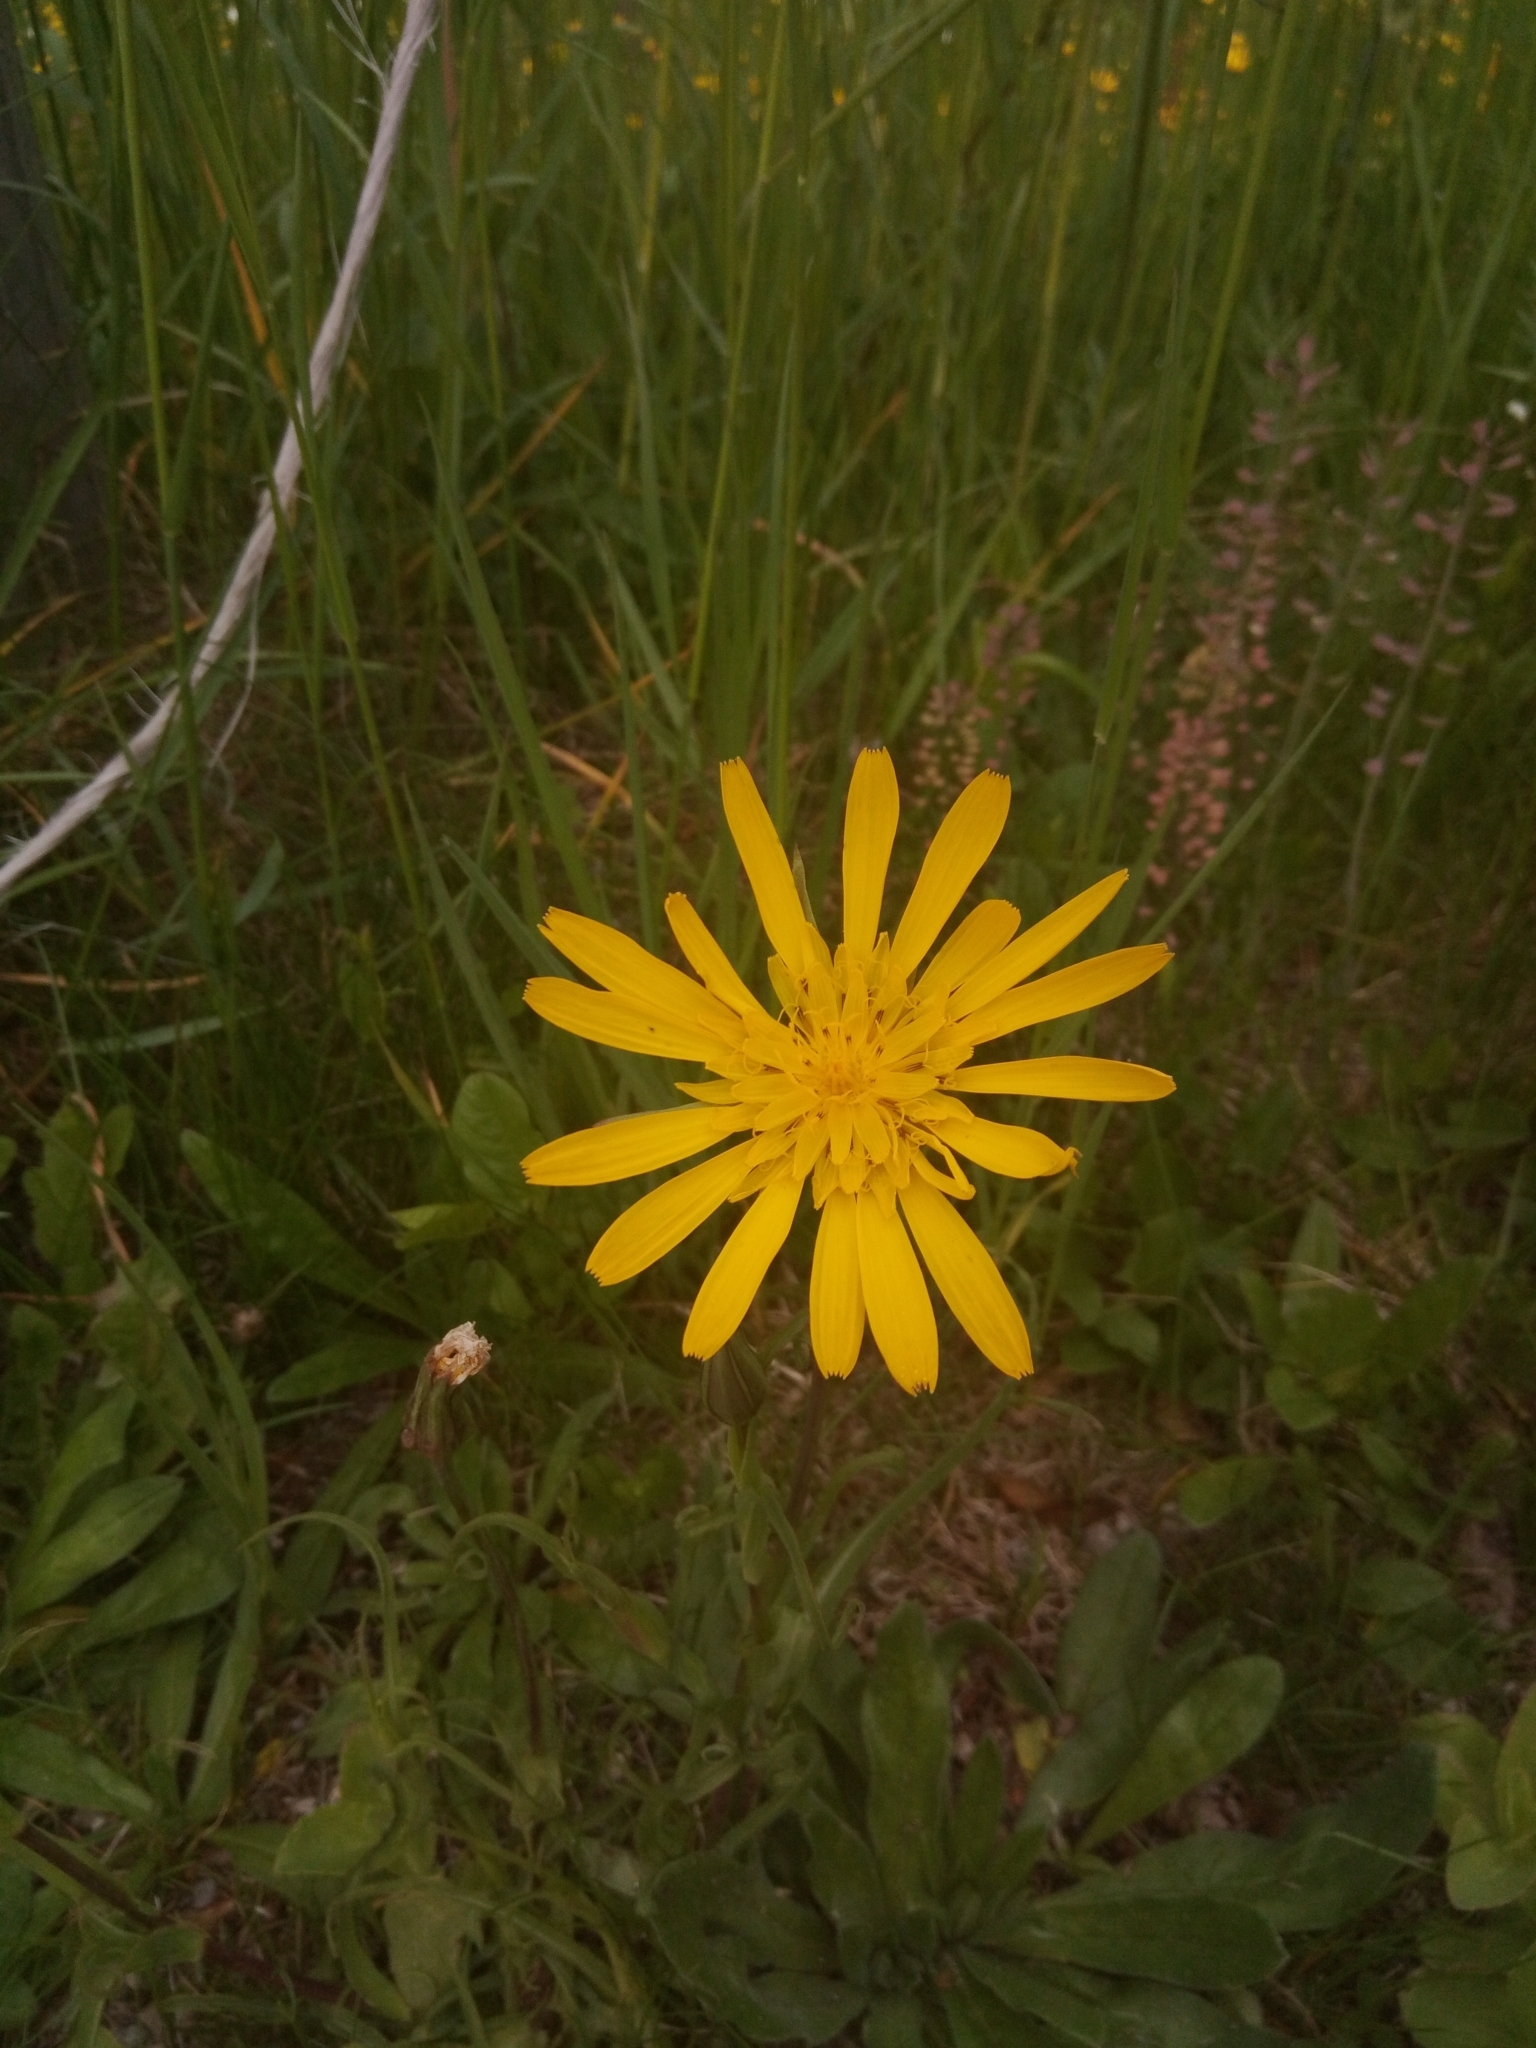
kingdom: Plantae
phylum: Tracheophyta
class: Magnoliopsida
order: Asterales
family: Asteraceae
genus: Tragopogon
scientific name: Tragopogon orientalis
